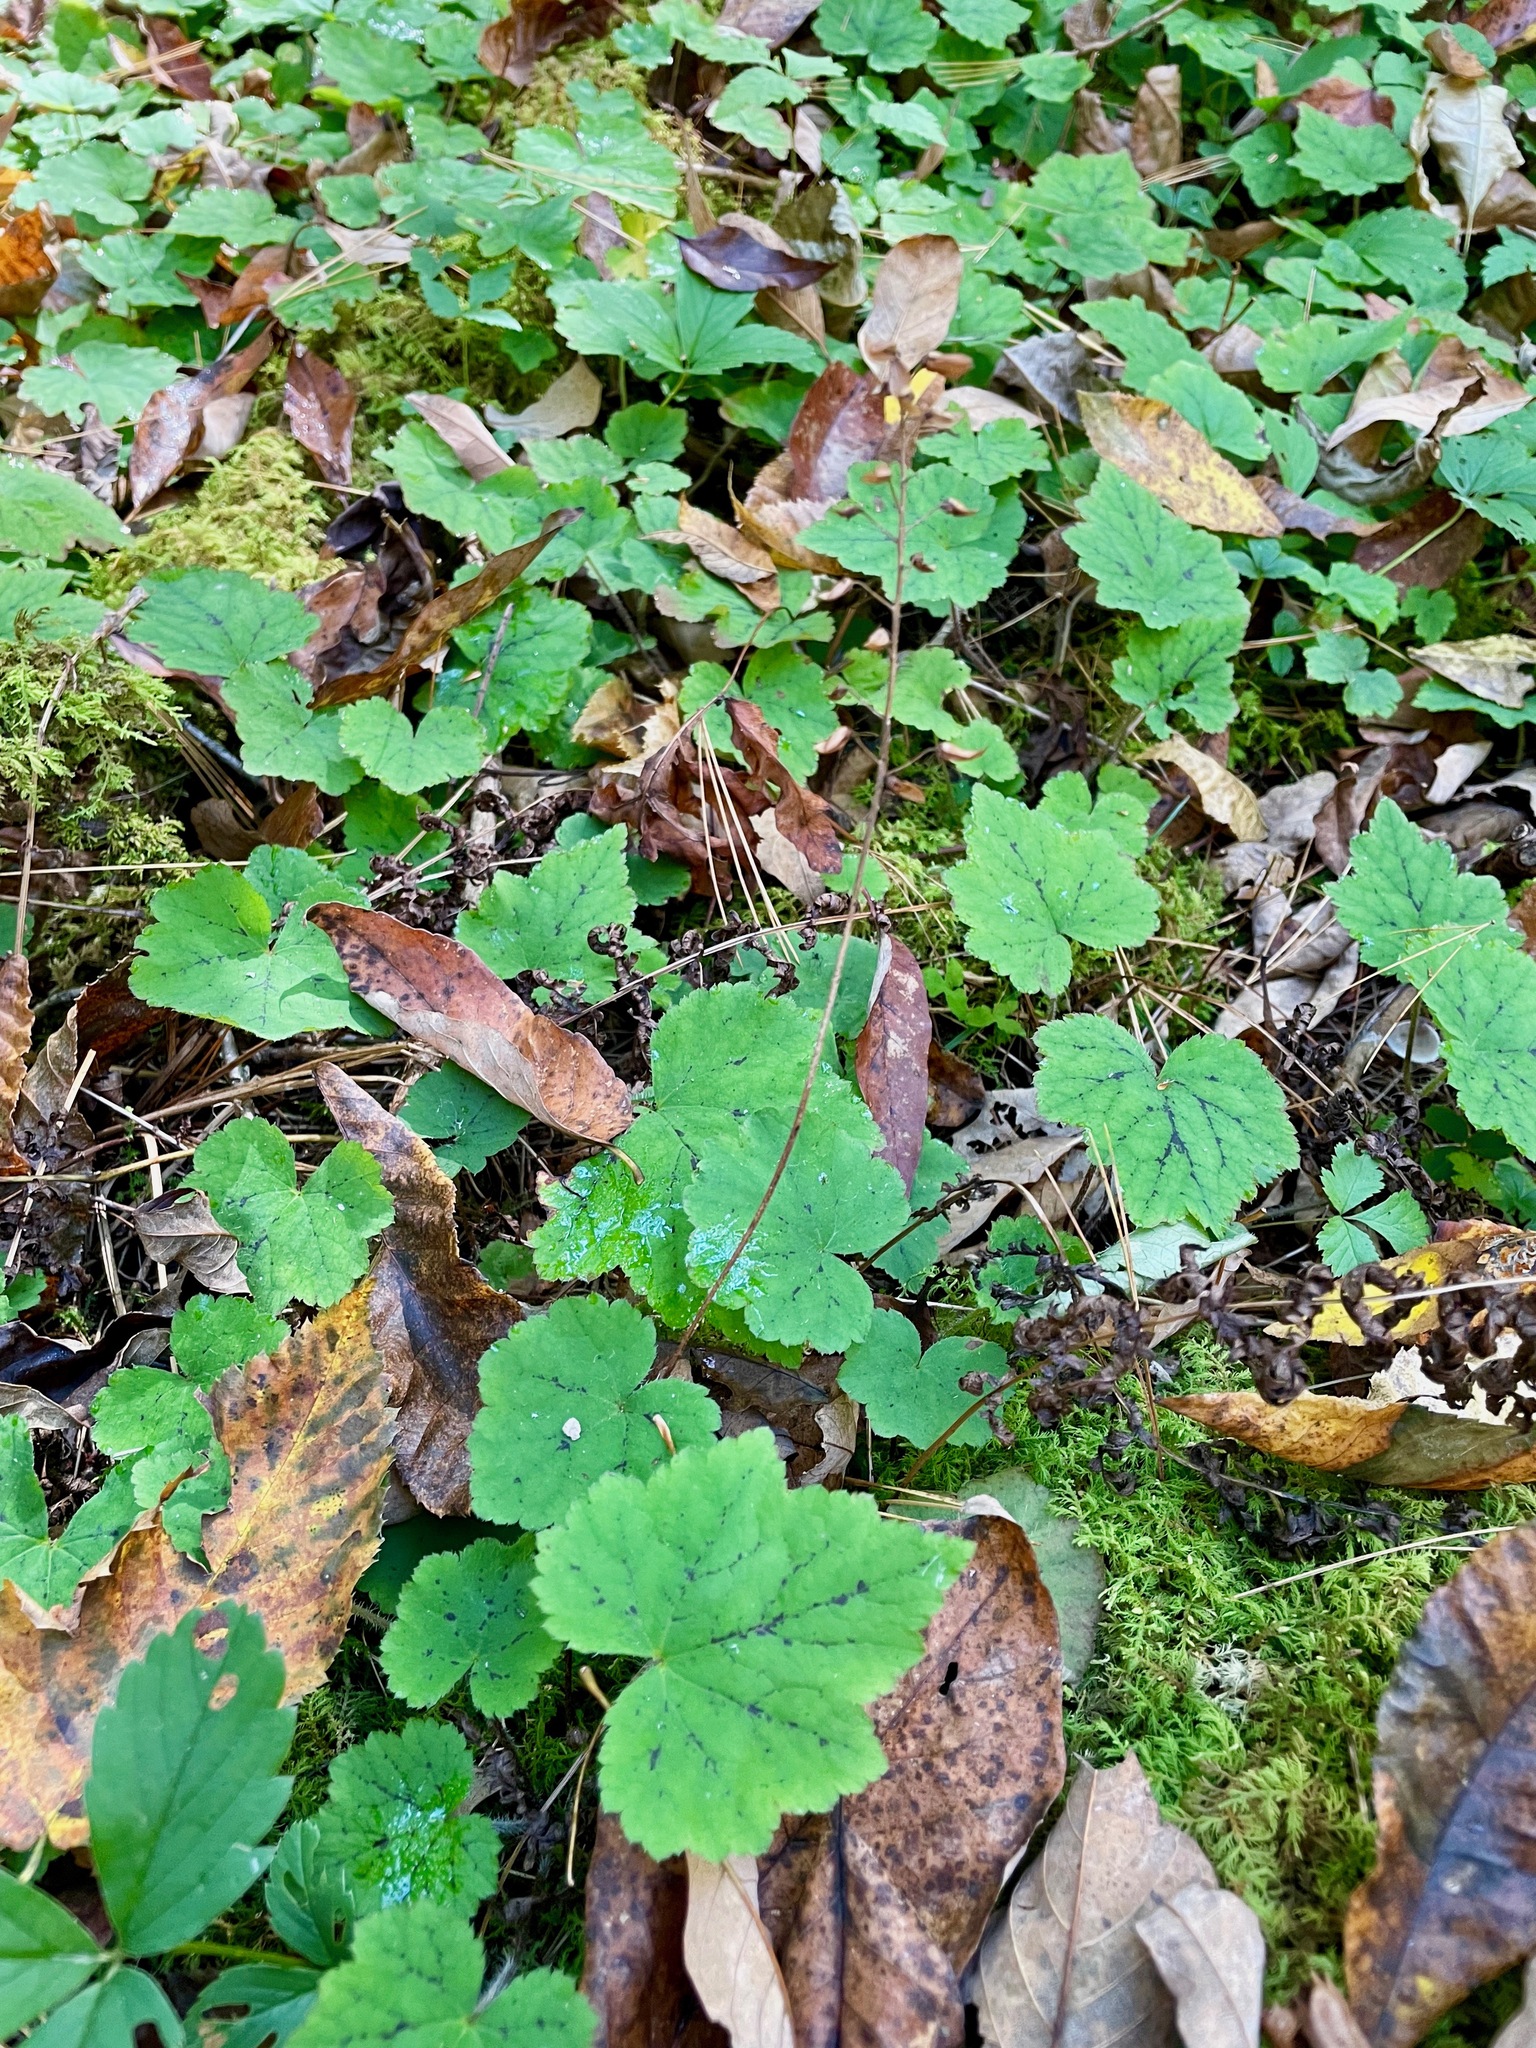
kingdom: Plantae
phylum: Tracheophyta
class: Magnoliopsida
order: Saxifragales
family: Saxifragaceae
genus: Tiarella
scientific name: Tiarella stolonifera
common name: Stoloniferous foamflower
